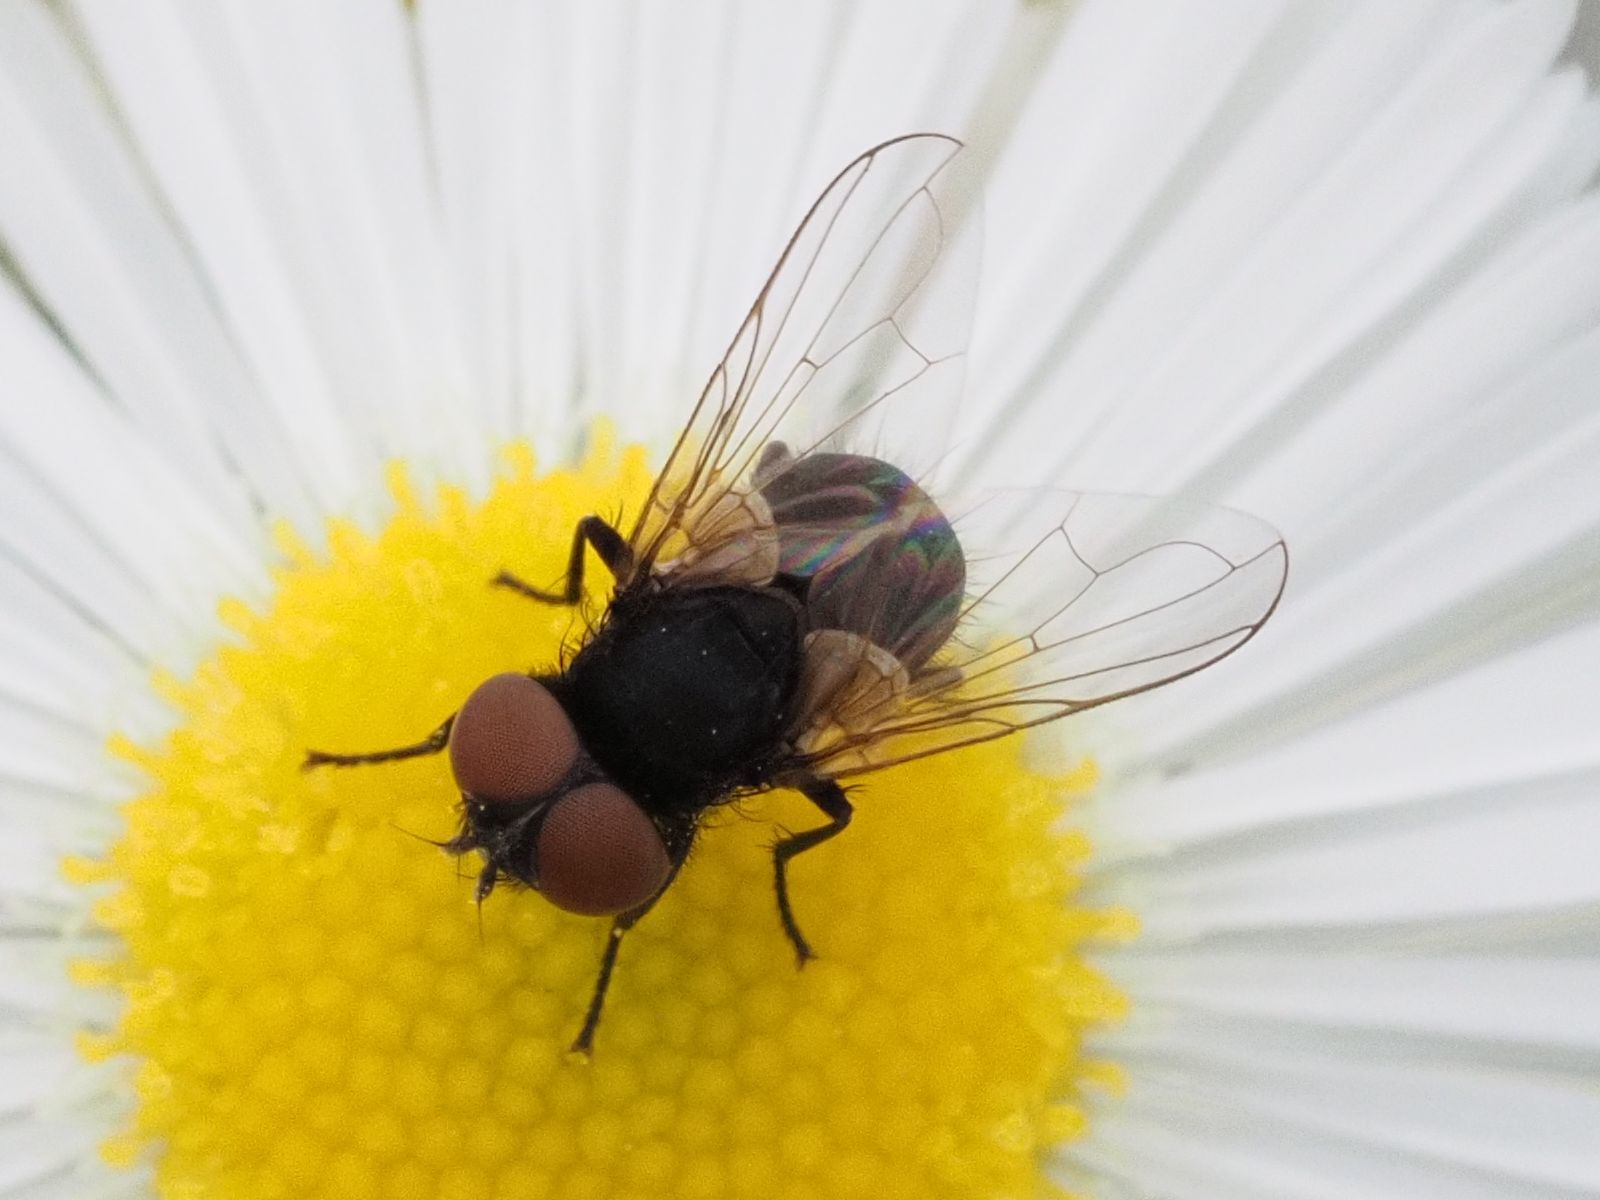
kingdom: Animalia
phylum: Arthropoda
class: Insecta
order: Diptera
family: Tachinidae
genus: Phasia
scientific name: Phasia barbifrons
